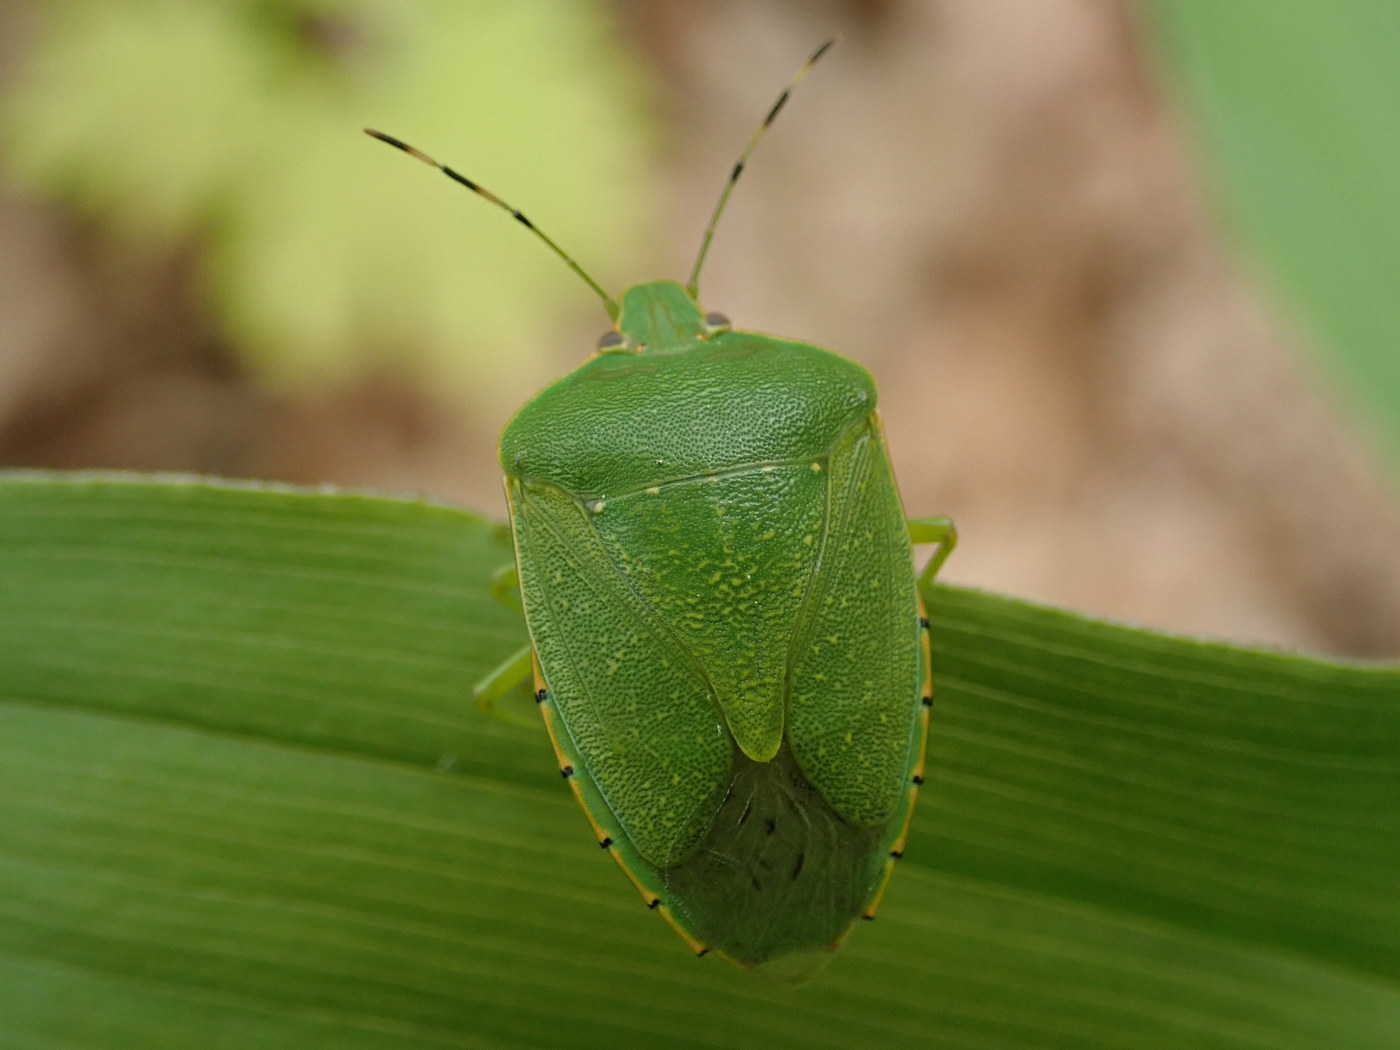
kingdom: Animalia
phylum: Arthropoda
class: Insecta
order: Hemiptera
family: Pentatomidae
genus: Chinavia
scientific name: Chinavia hilaris
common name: Green stink bug
